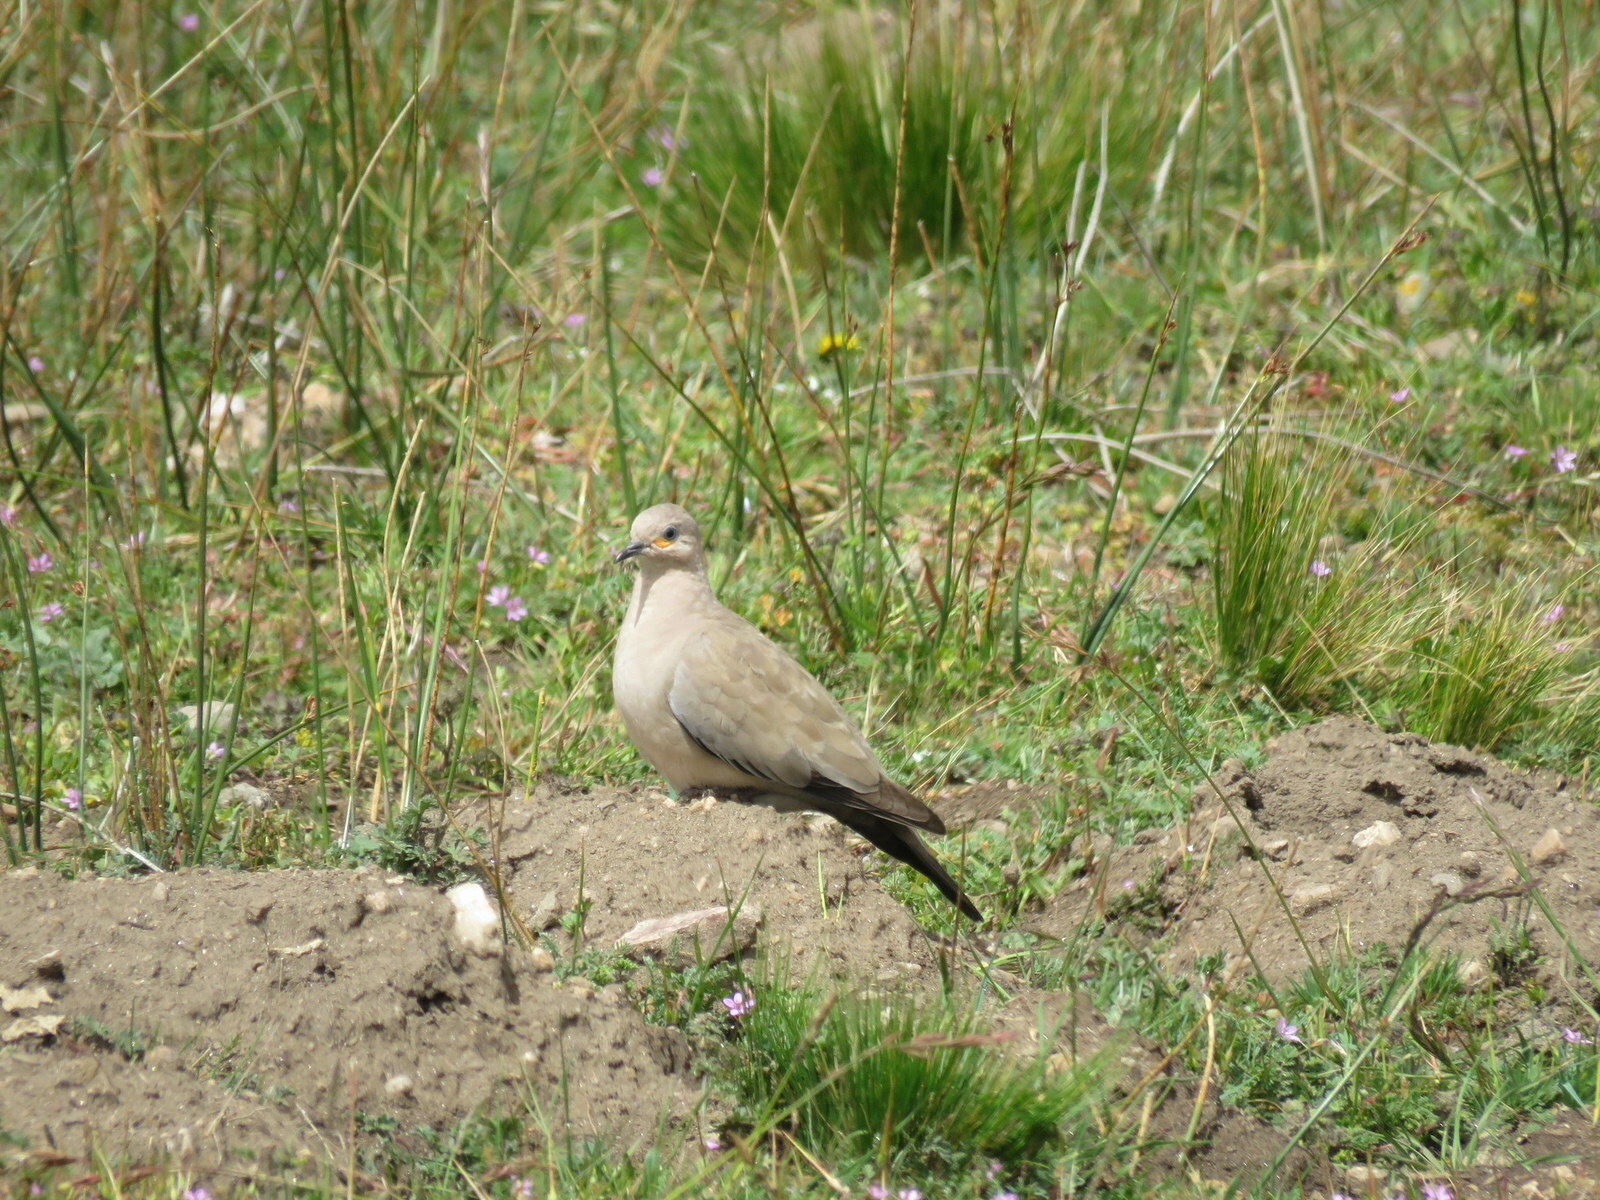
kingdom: Animalia
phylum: Chordata
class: Aves
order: Columbiformes
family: Columbidae
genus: Metriopelia
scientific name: Metriopelia melanoptera
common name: Black-winged ground dove
